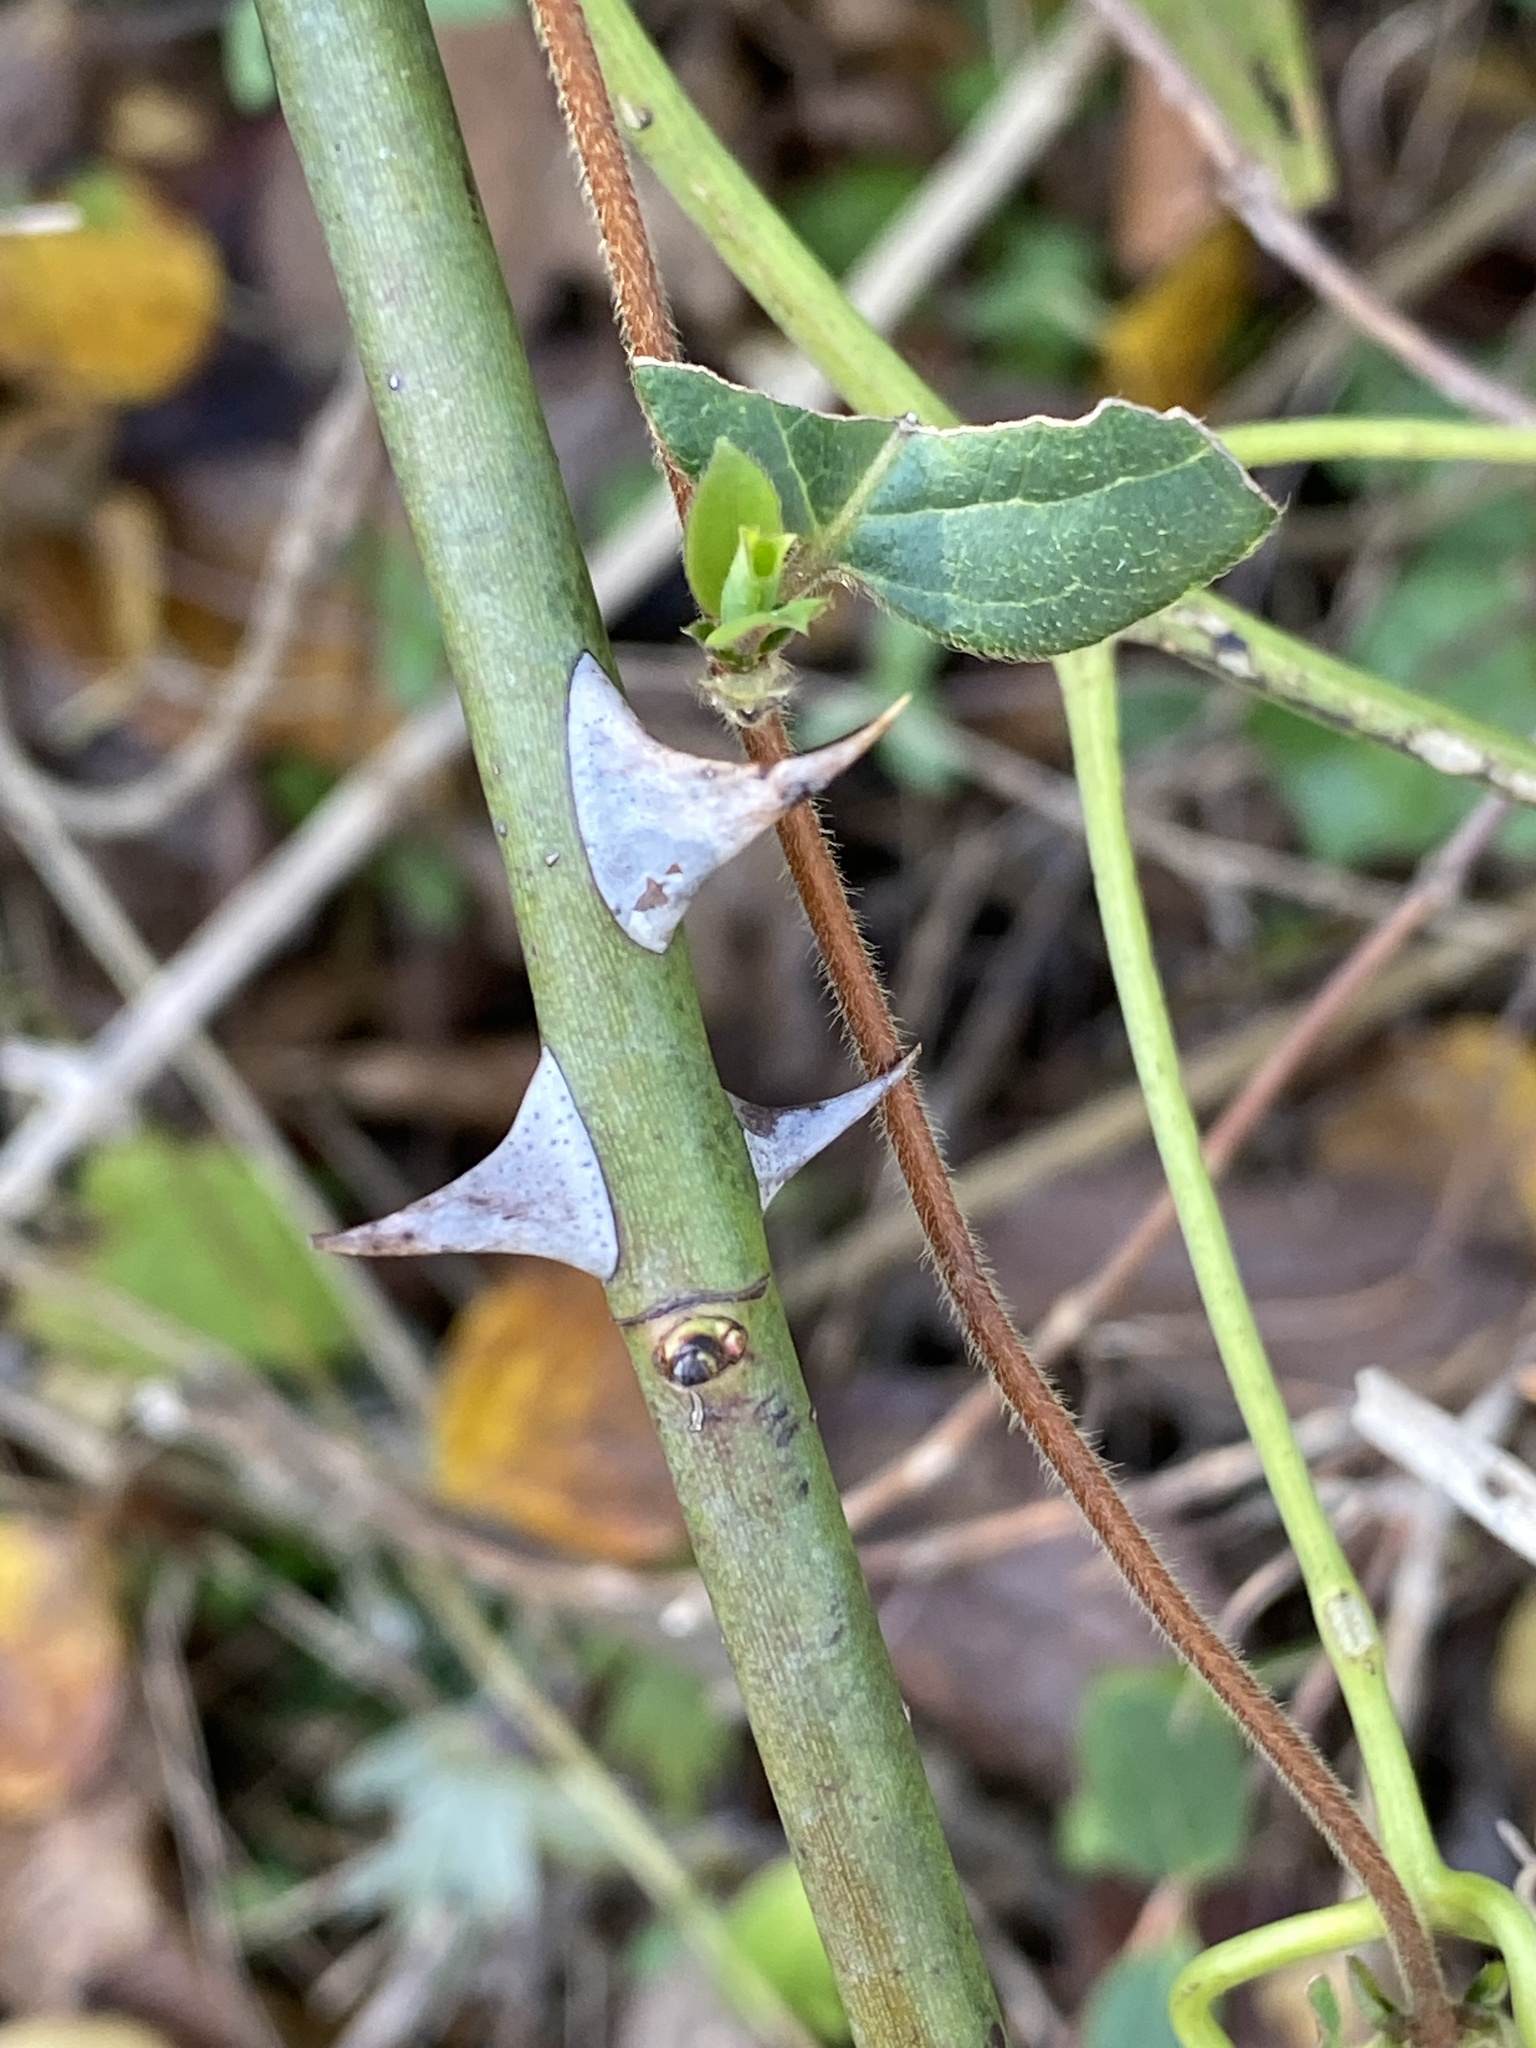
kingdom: Plantae
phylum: Tracheophyta
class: Magnoliopsida
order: Rosales
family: Rosaceae
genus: Rosa
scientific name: Rosa multiflora
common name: Multiflora rose
